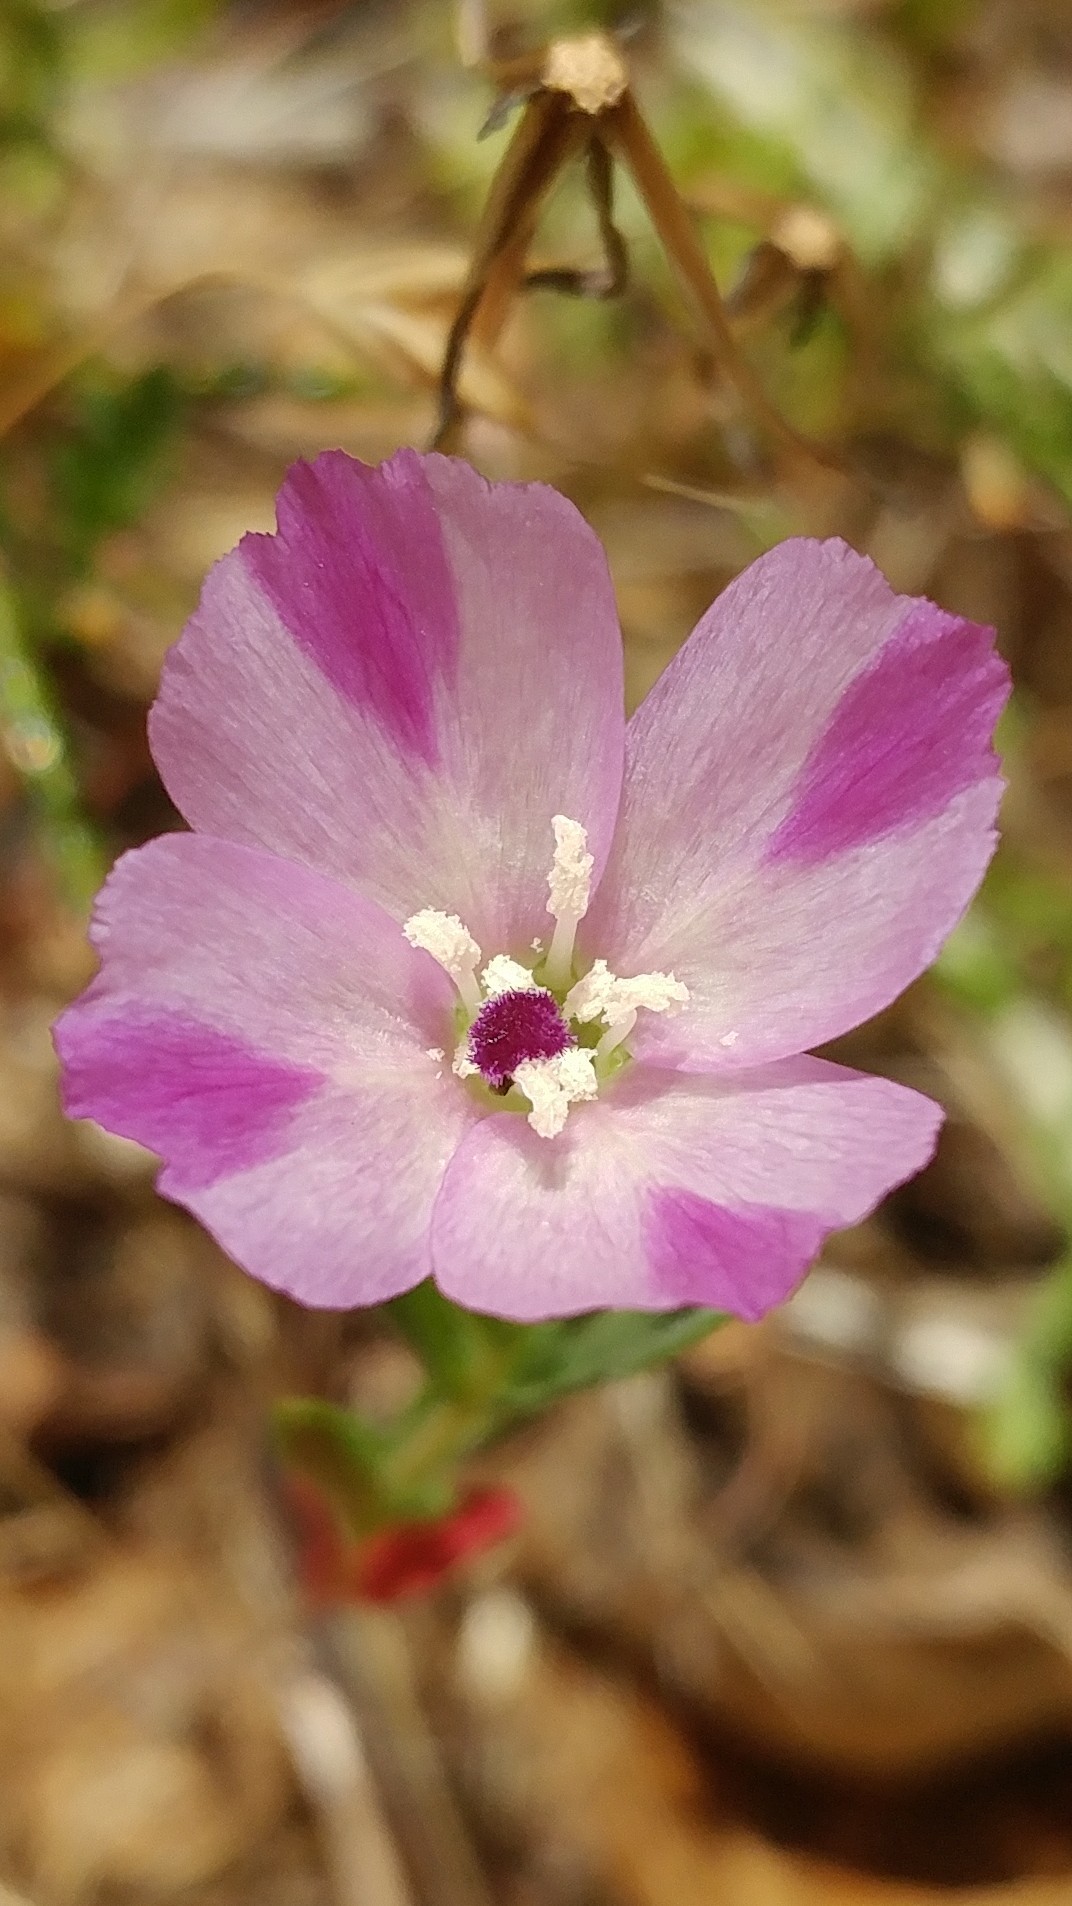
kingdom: Plantae
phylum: Tracheophyta
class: Magnoliopsida
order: Myrtales
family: Onagraceae
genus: Clarkia
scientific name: Clarkia purpurea
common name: Purple clarkia
